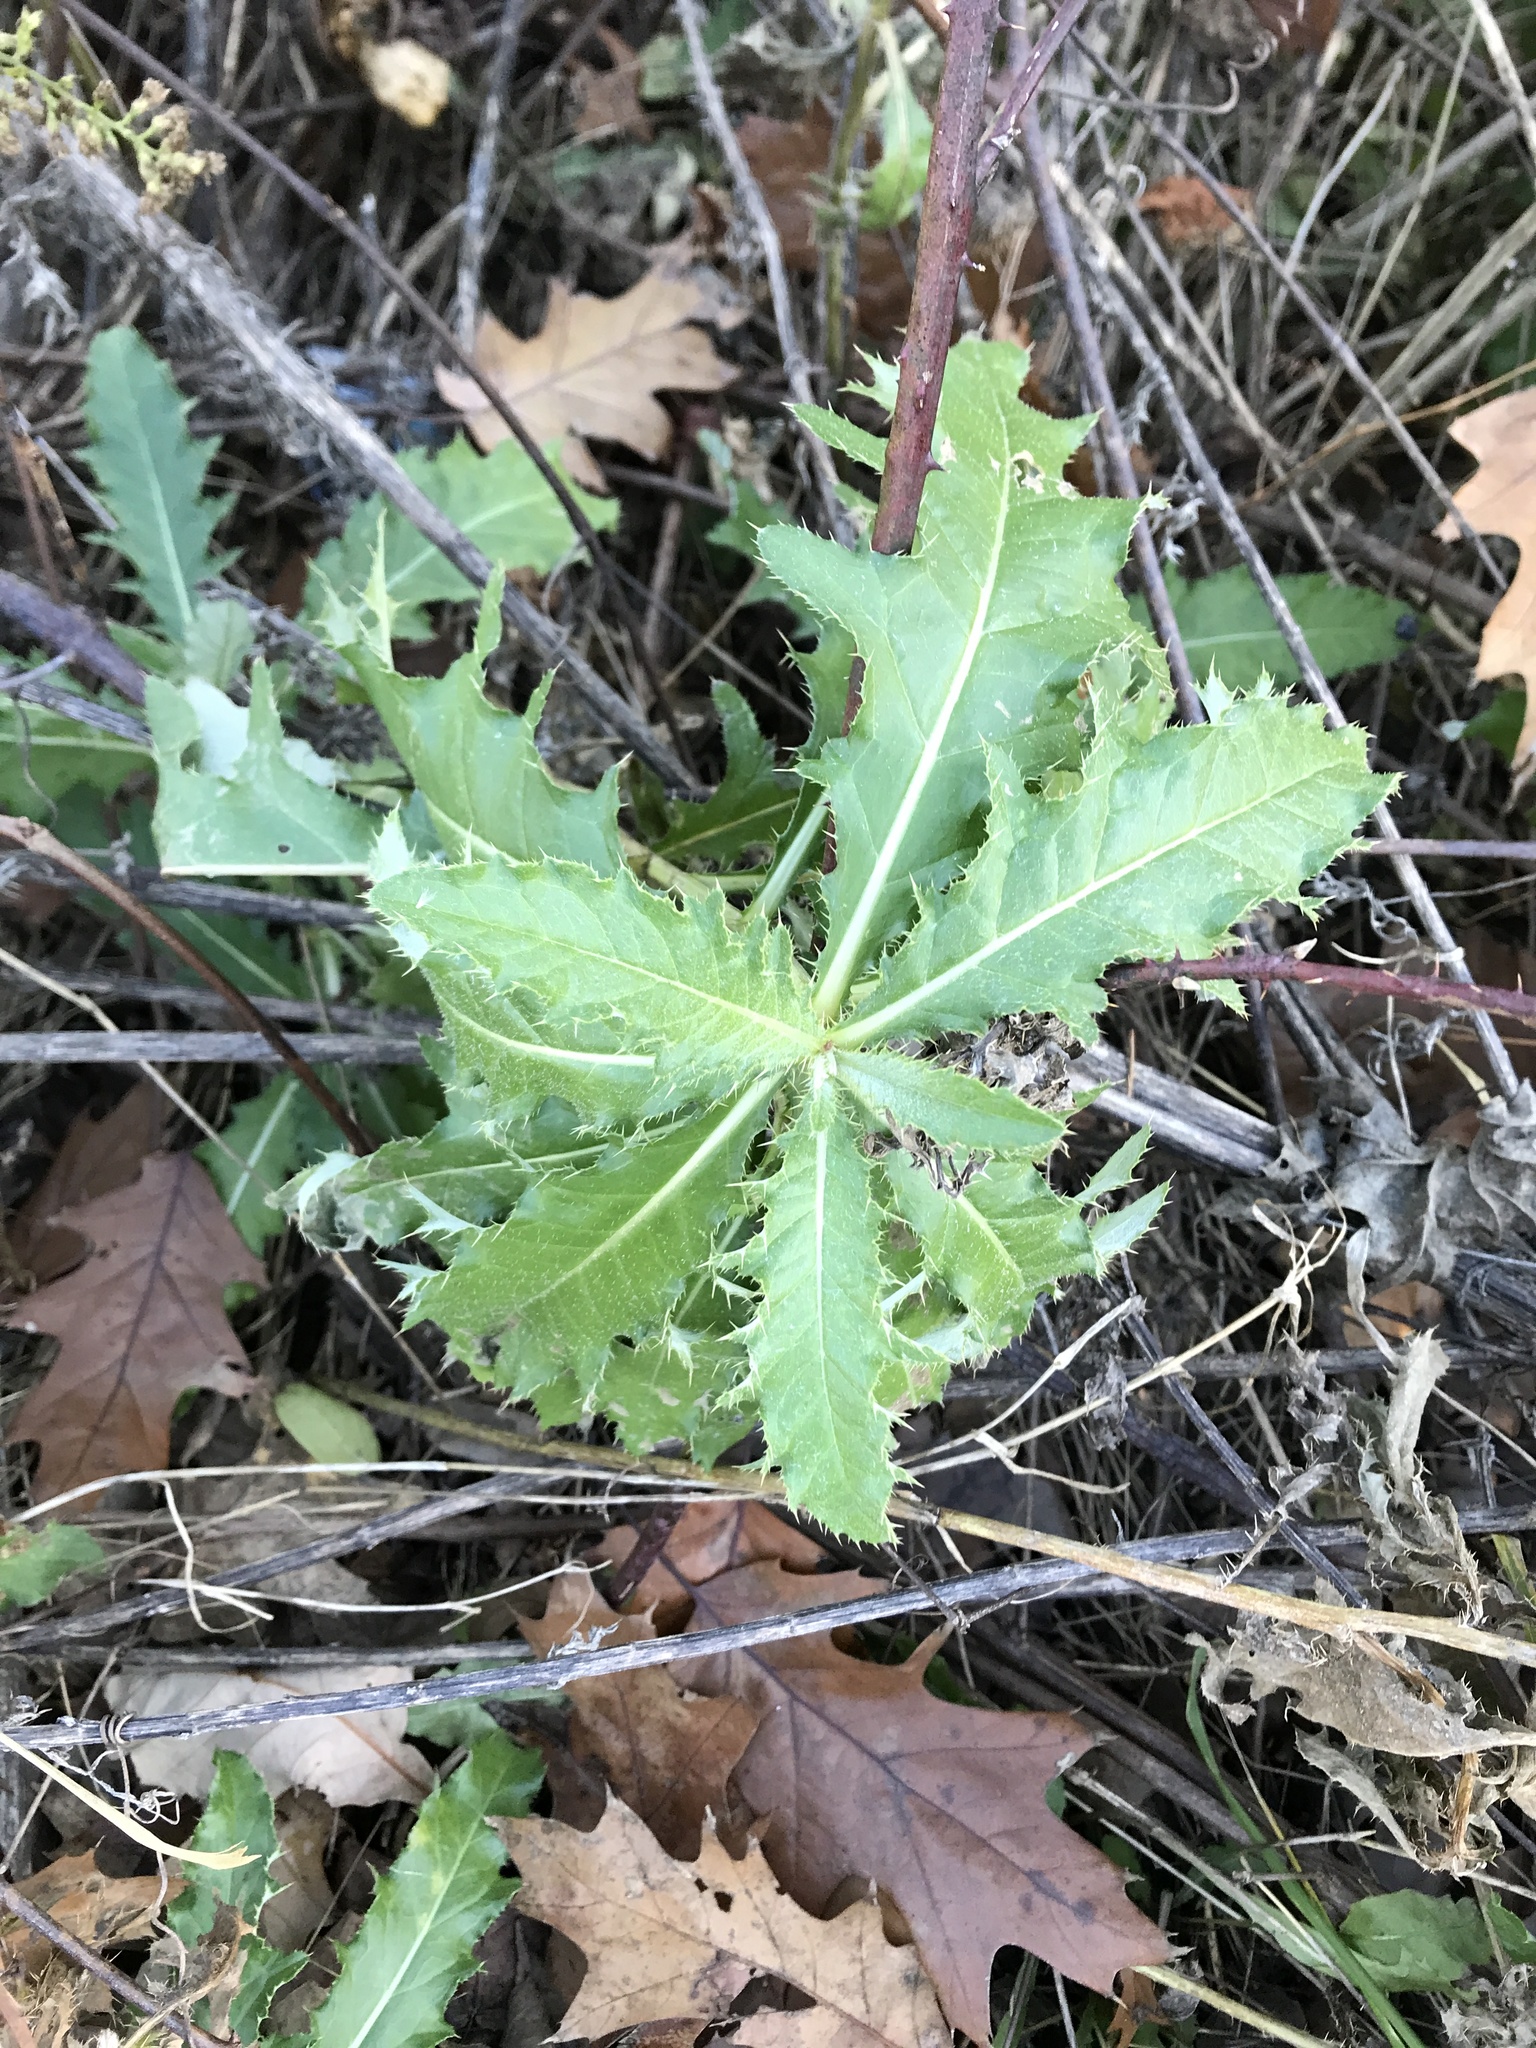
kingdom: Plantae
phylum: Tracheophyta
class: Magnoliopsida
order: Asterales
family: Asteraceae
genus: Cirsium
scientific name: Cirsium arvense
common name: Creeping thistle
